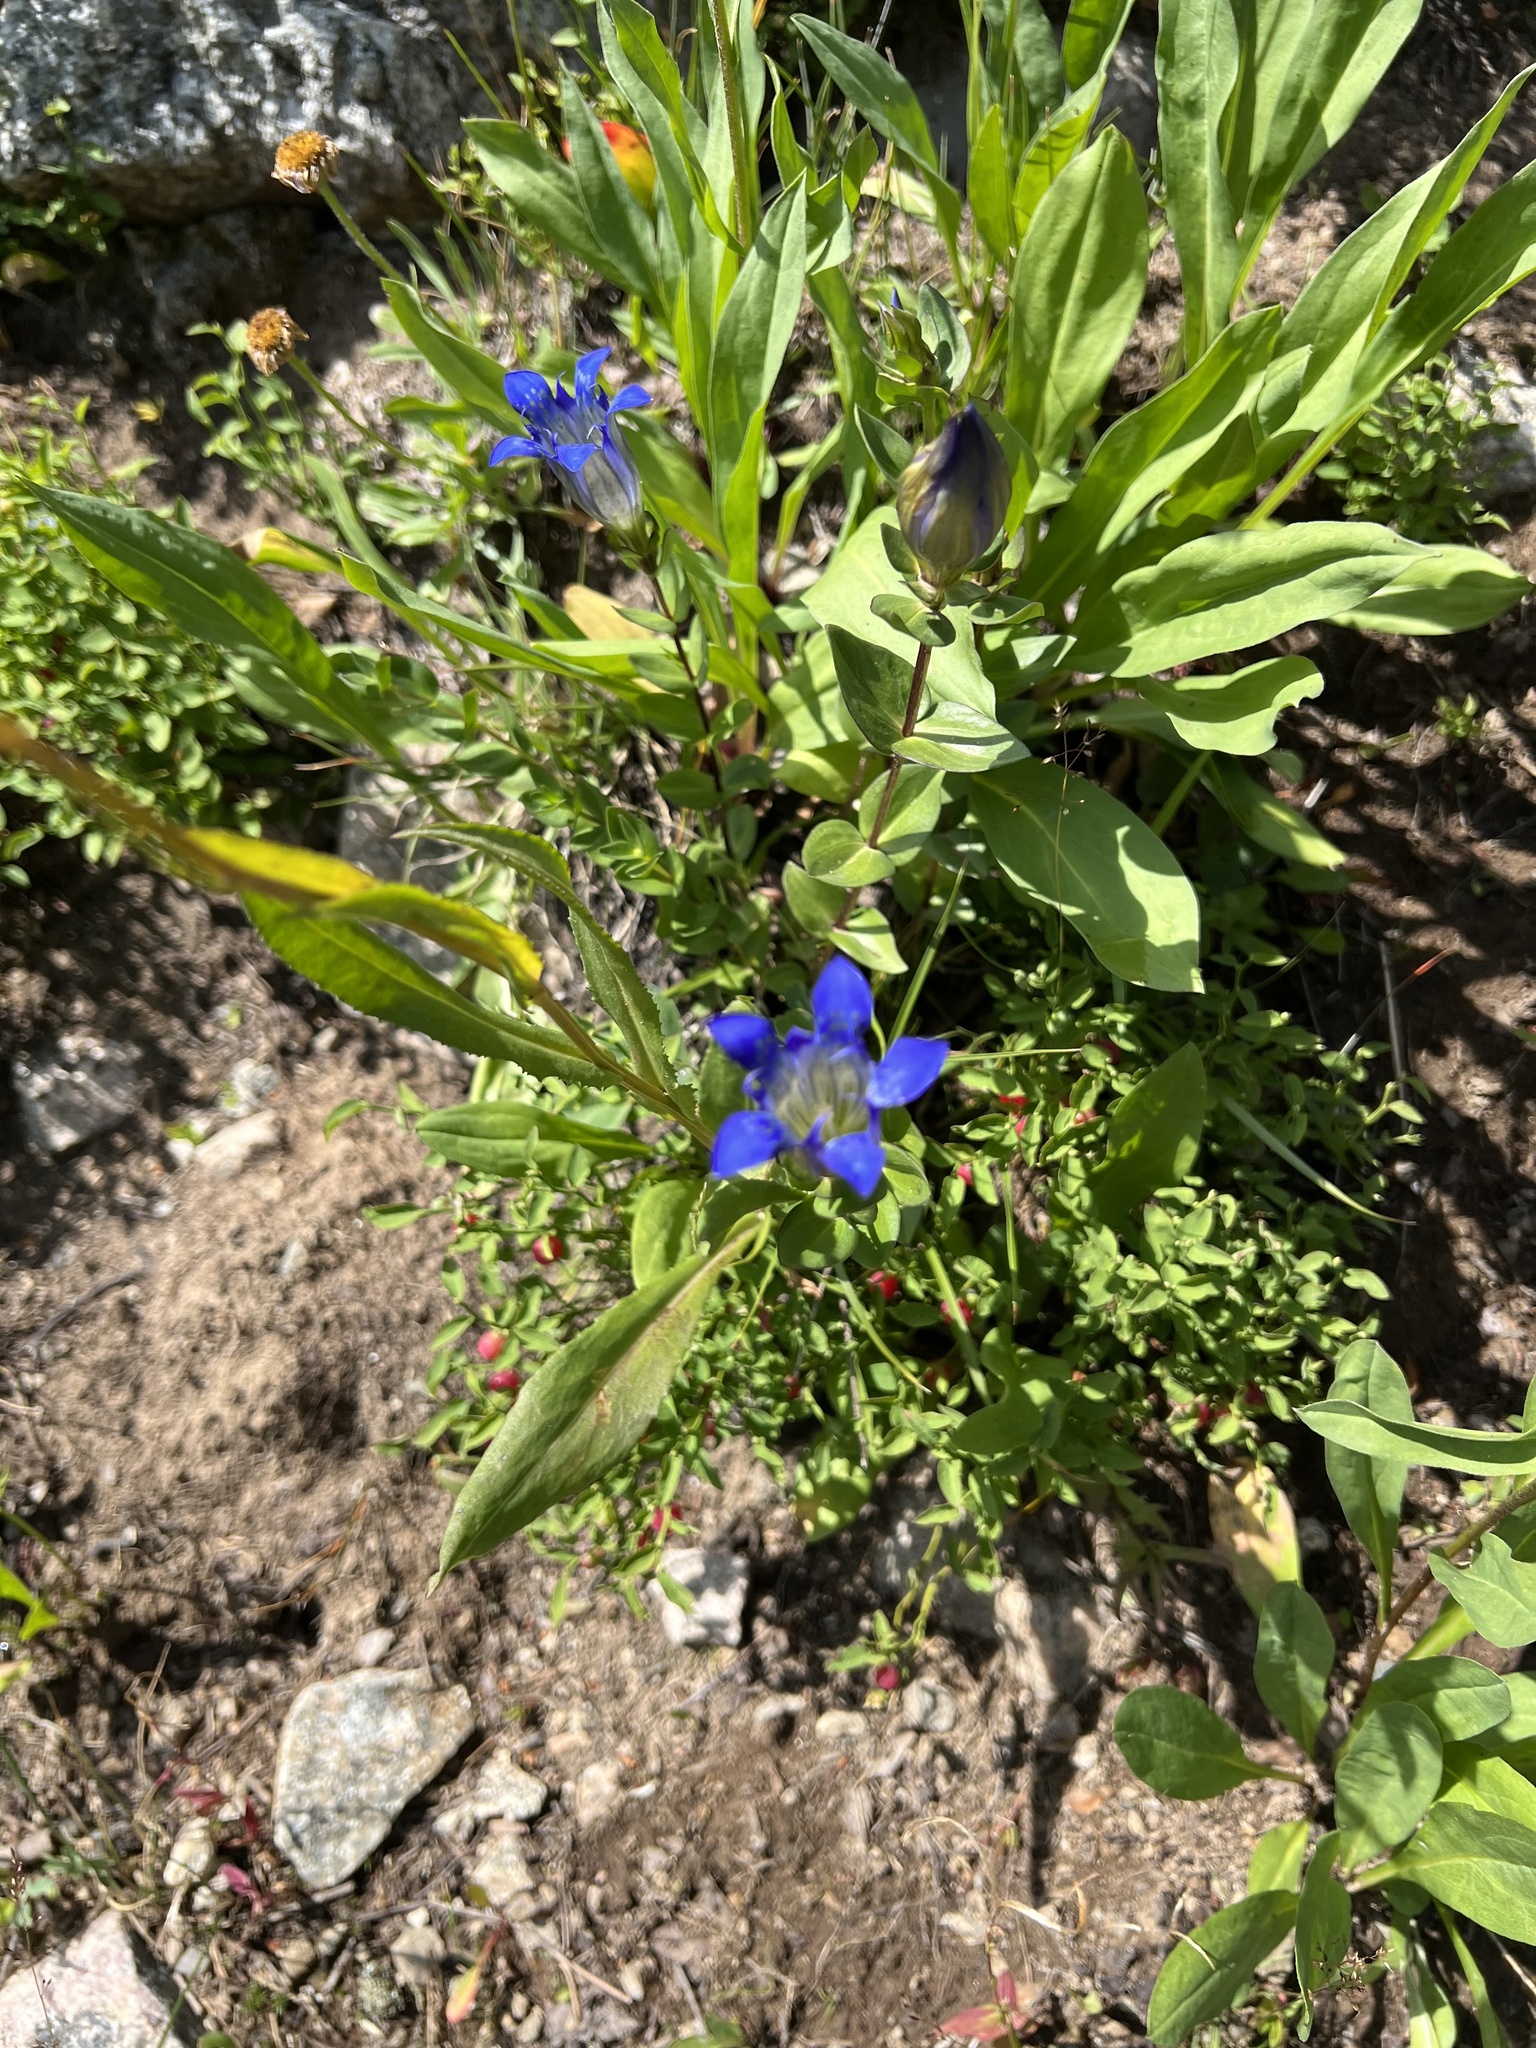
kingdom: Plantae
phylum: Tracheophyta
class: Magnoliopsida
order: Gentianales
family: Gentianaceae
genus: Gentiana
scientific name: Gentiana calycosa
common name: Rainier pleated gentian
